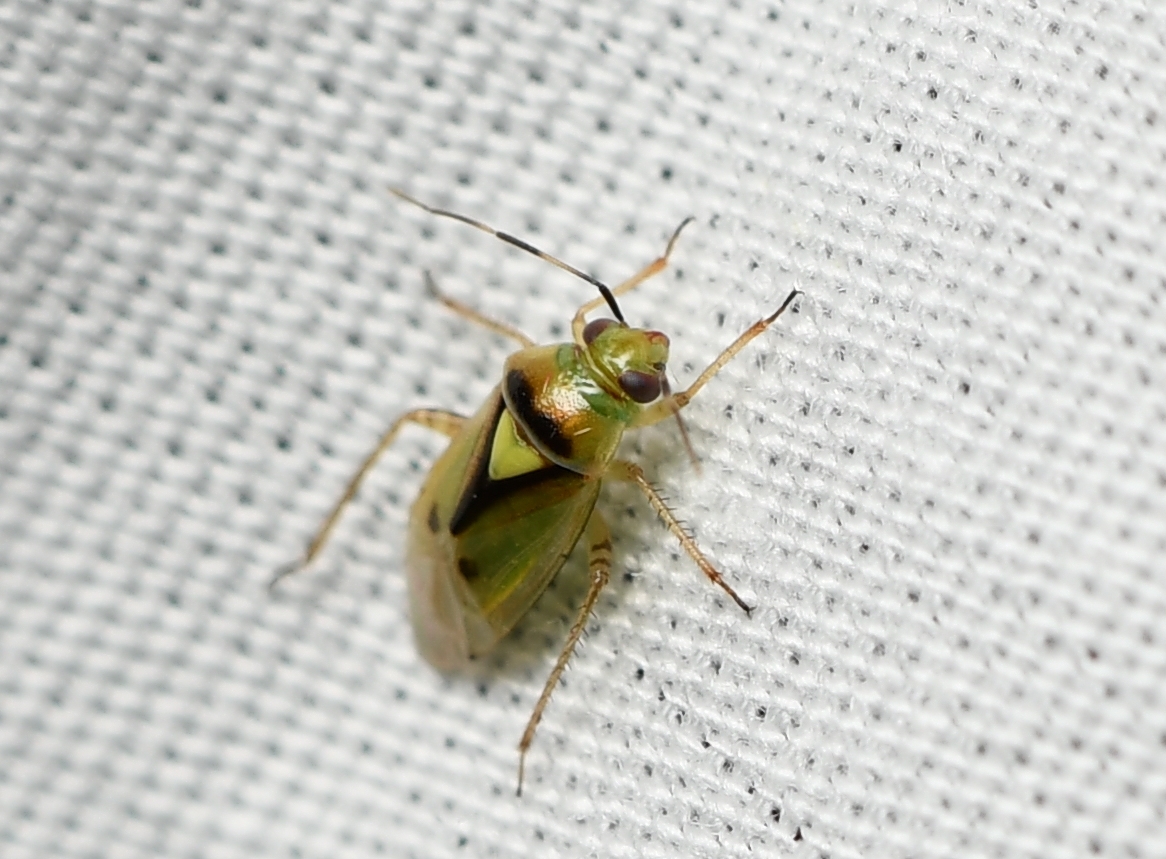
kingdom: Animalia
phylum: Arthropoda
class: Insecta
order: Hemiptera
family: Miridae
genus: Proba
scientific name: Proba distanti
